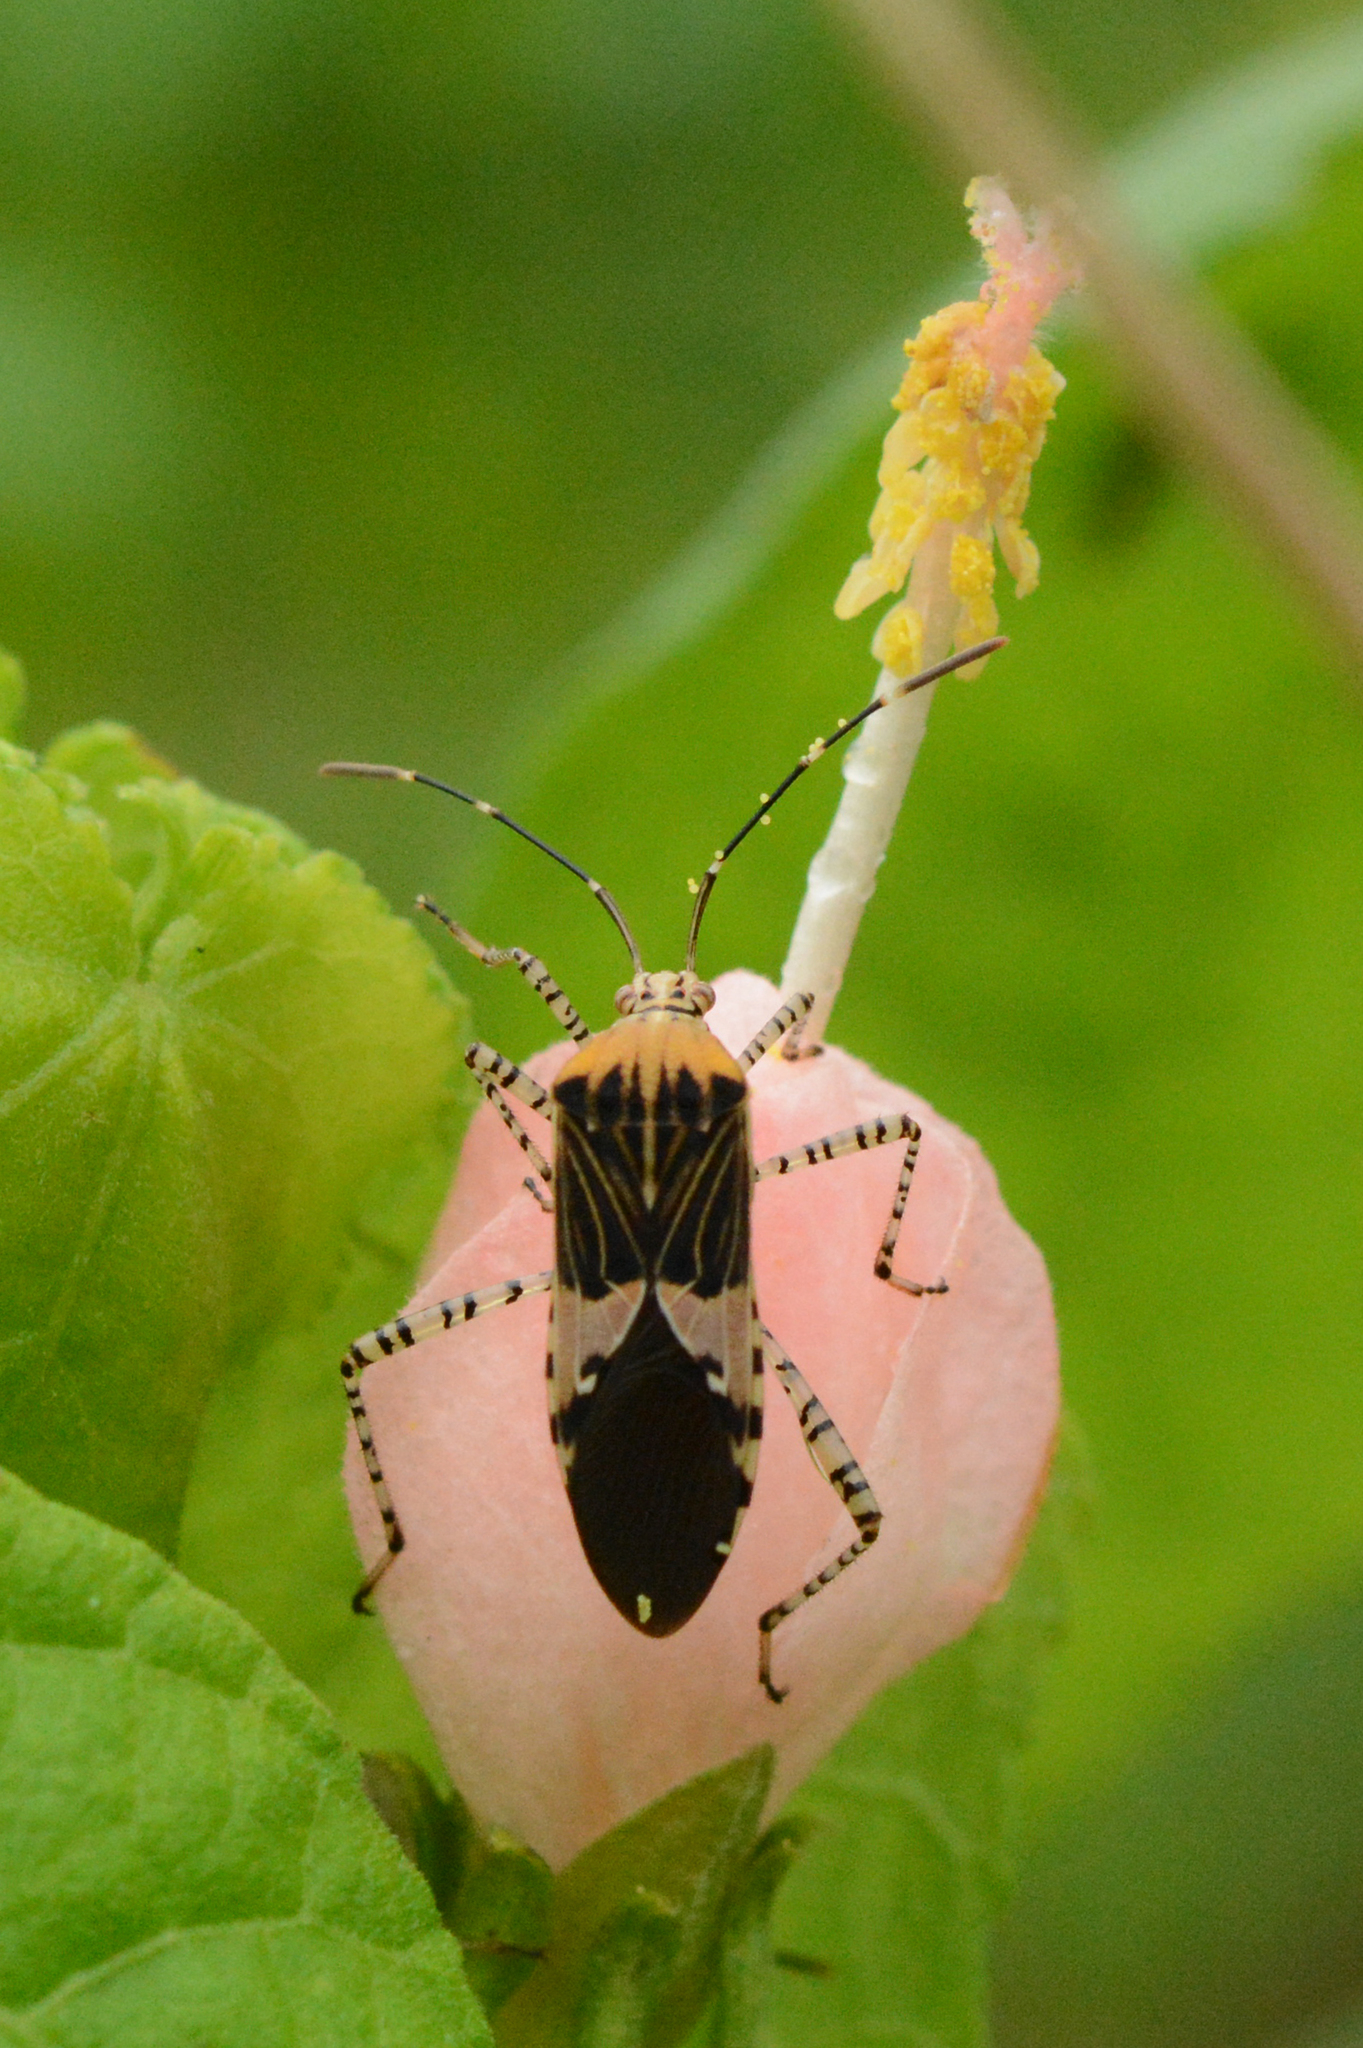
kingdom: Animalia
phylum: Arthropoda
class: Insecta
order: Hemiptera
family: Coreidae
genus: Hypselonotus
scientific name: Hypselonotus punctiventris
